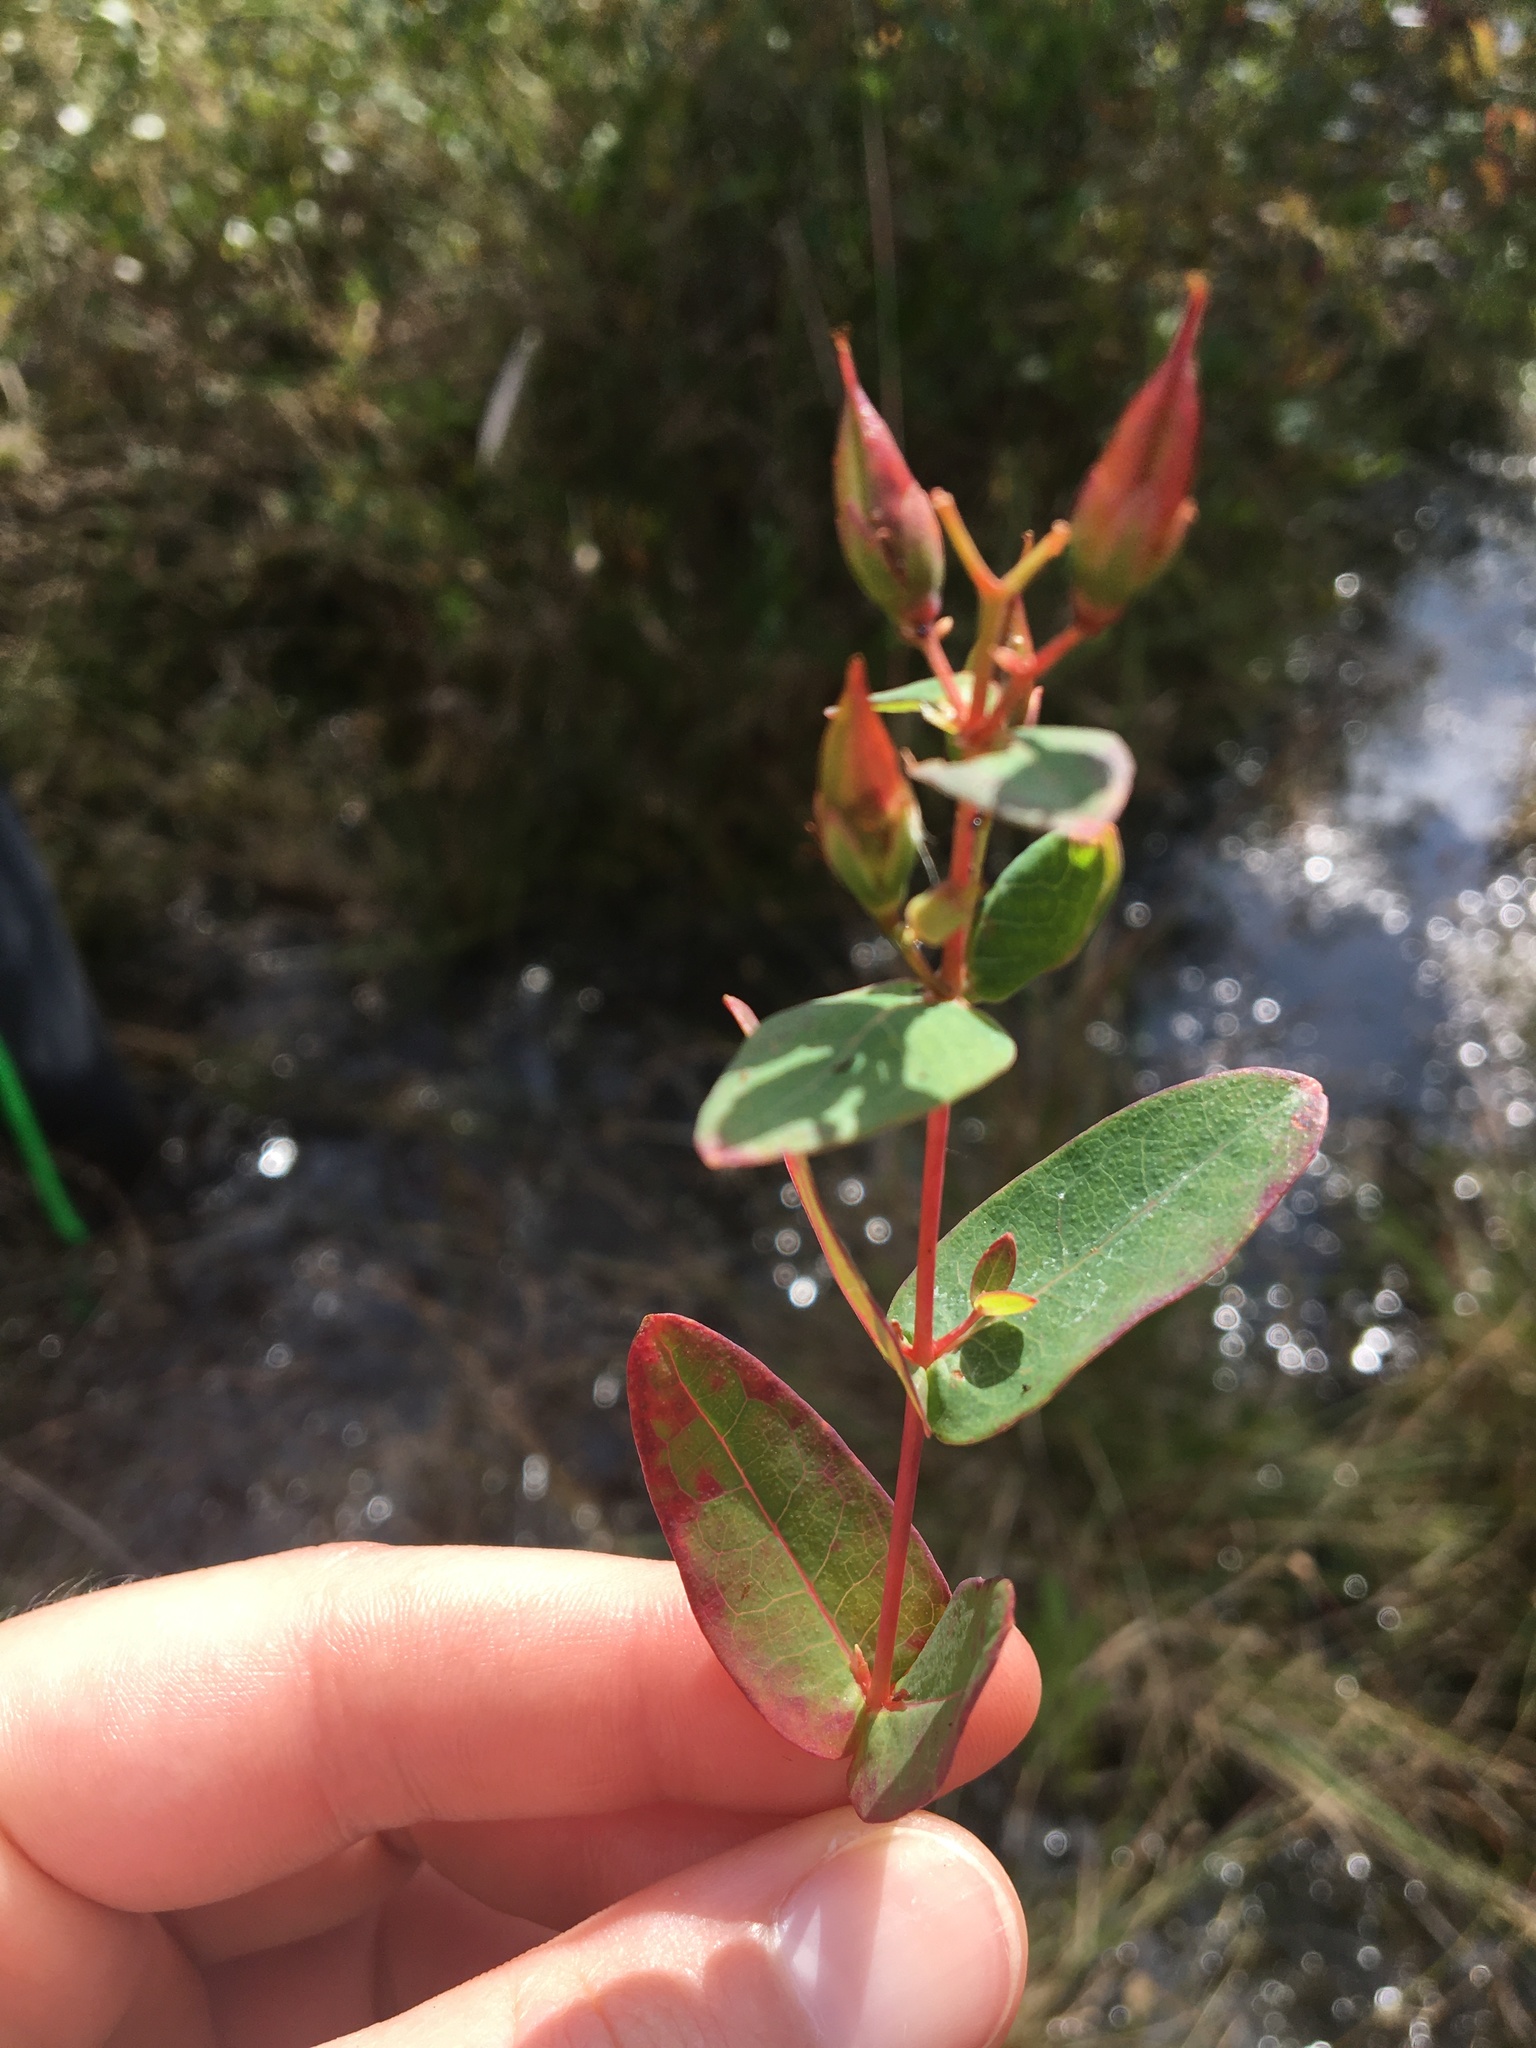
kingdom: Plantae
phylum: Tracheophyta
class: Magnoliopsida
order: Malpighiales
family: Hypericaceae
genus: Triadenum
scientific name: Triadenum virginicum
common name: Marsh st. john's-wort
